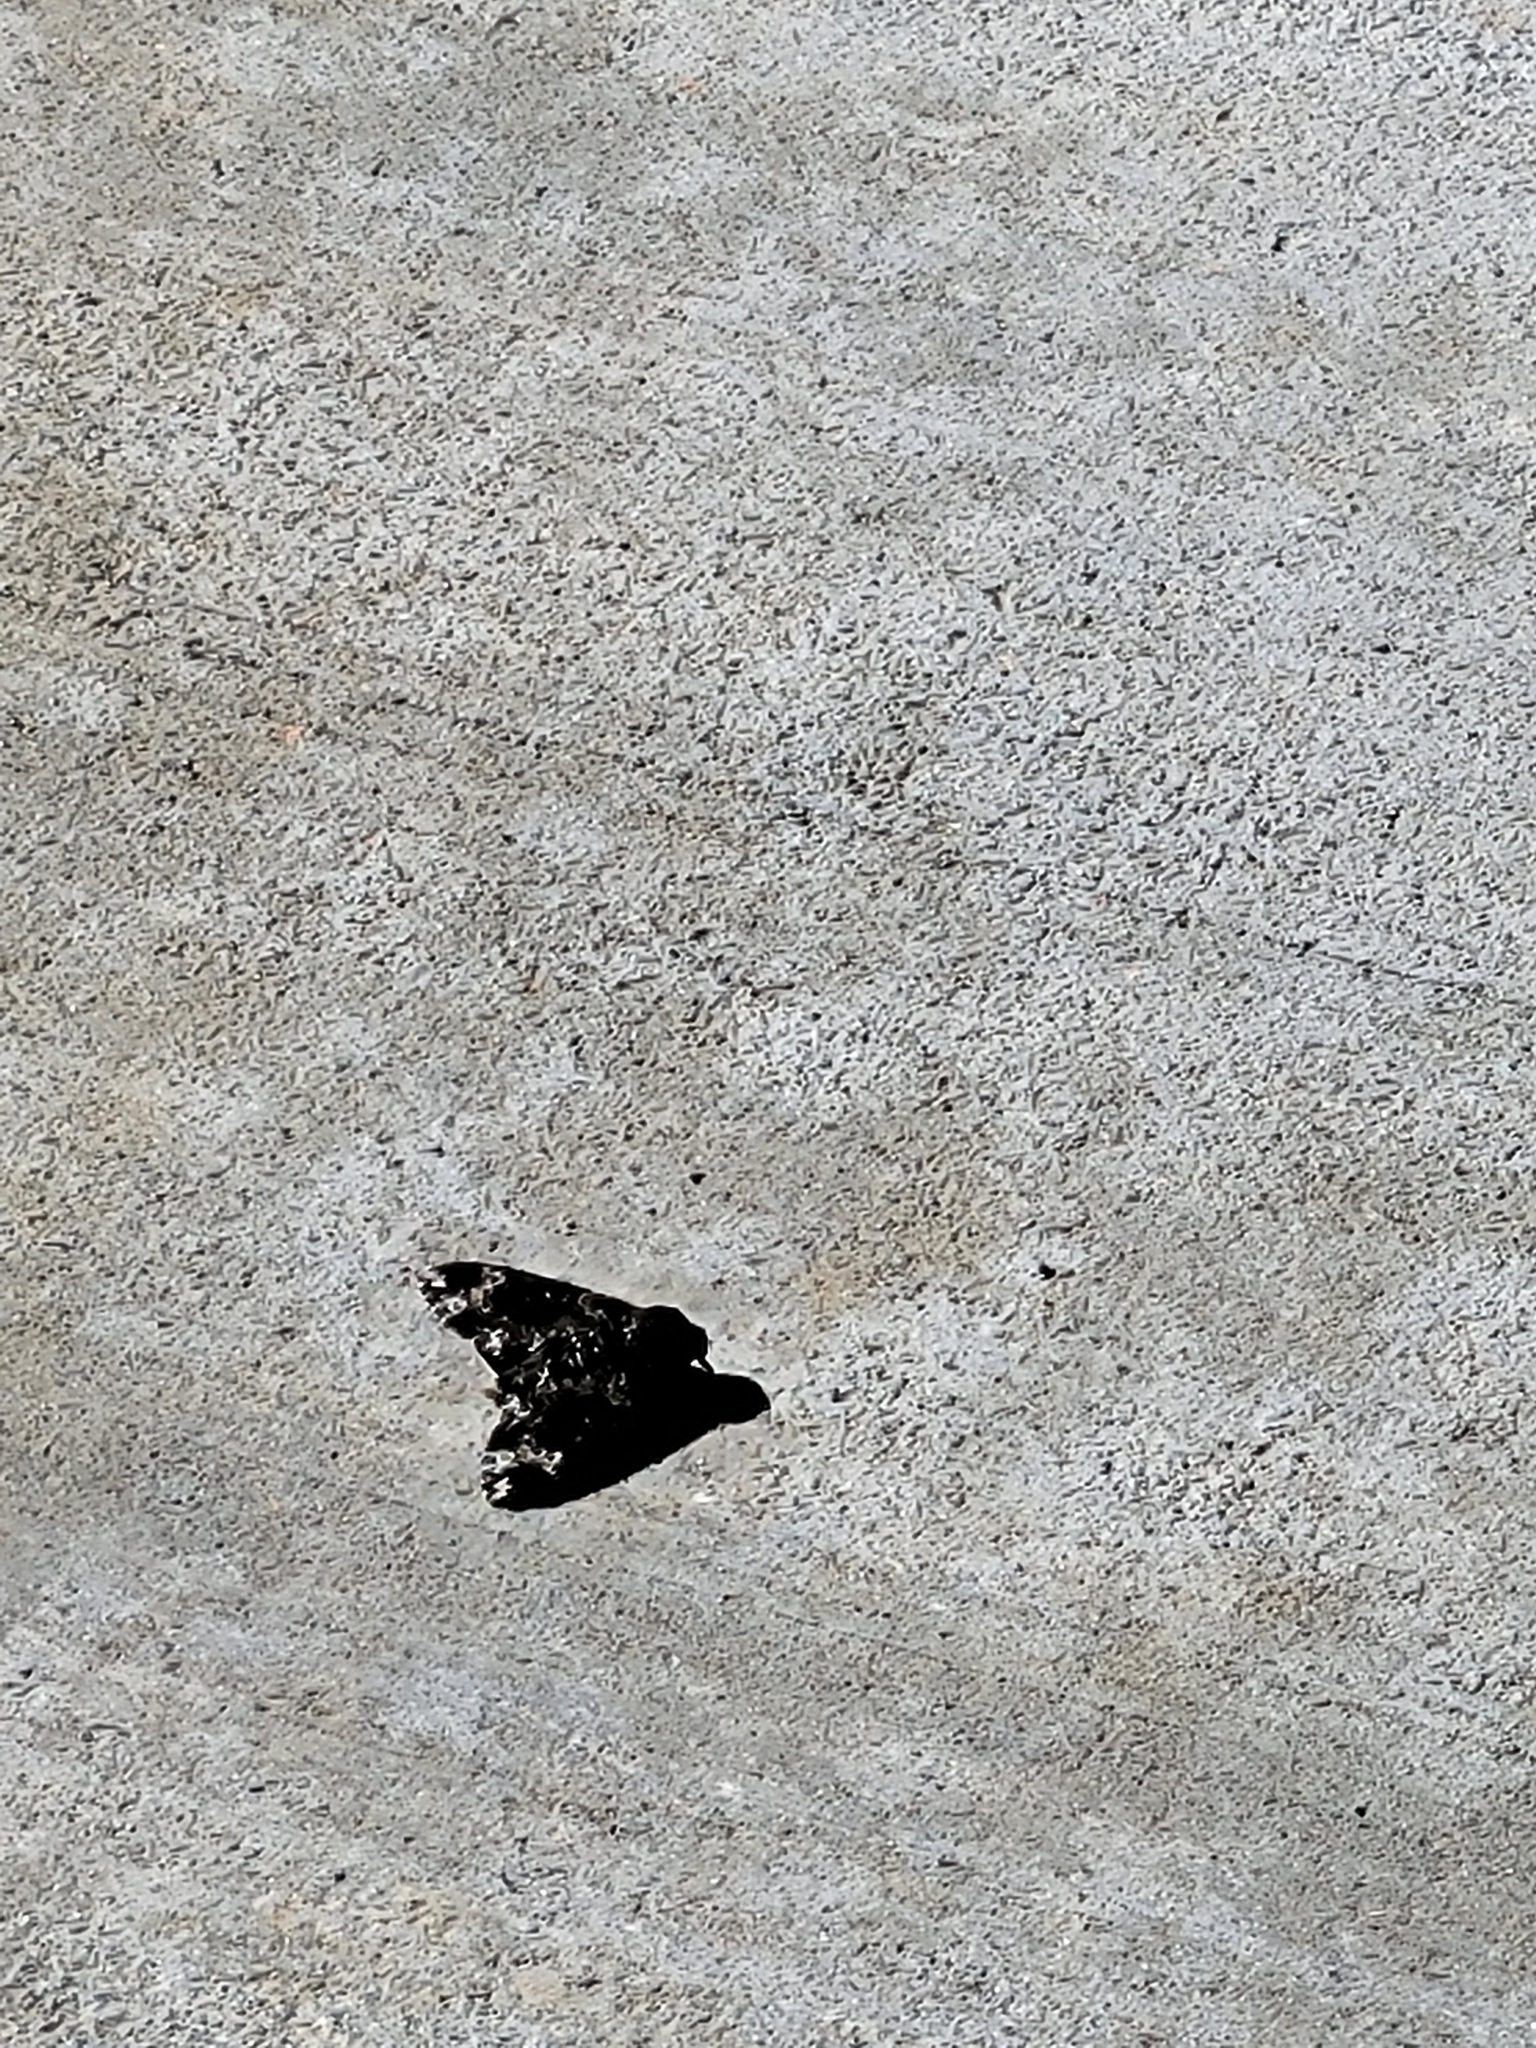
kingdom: Animalia
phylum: Arthropoda
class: Insecta
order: Lepidoptera
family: Sphingidae
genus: Manduca
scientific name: Manduca rustica
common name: Rustic sphinx
